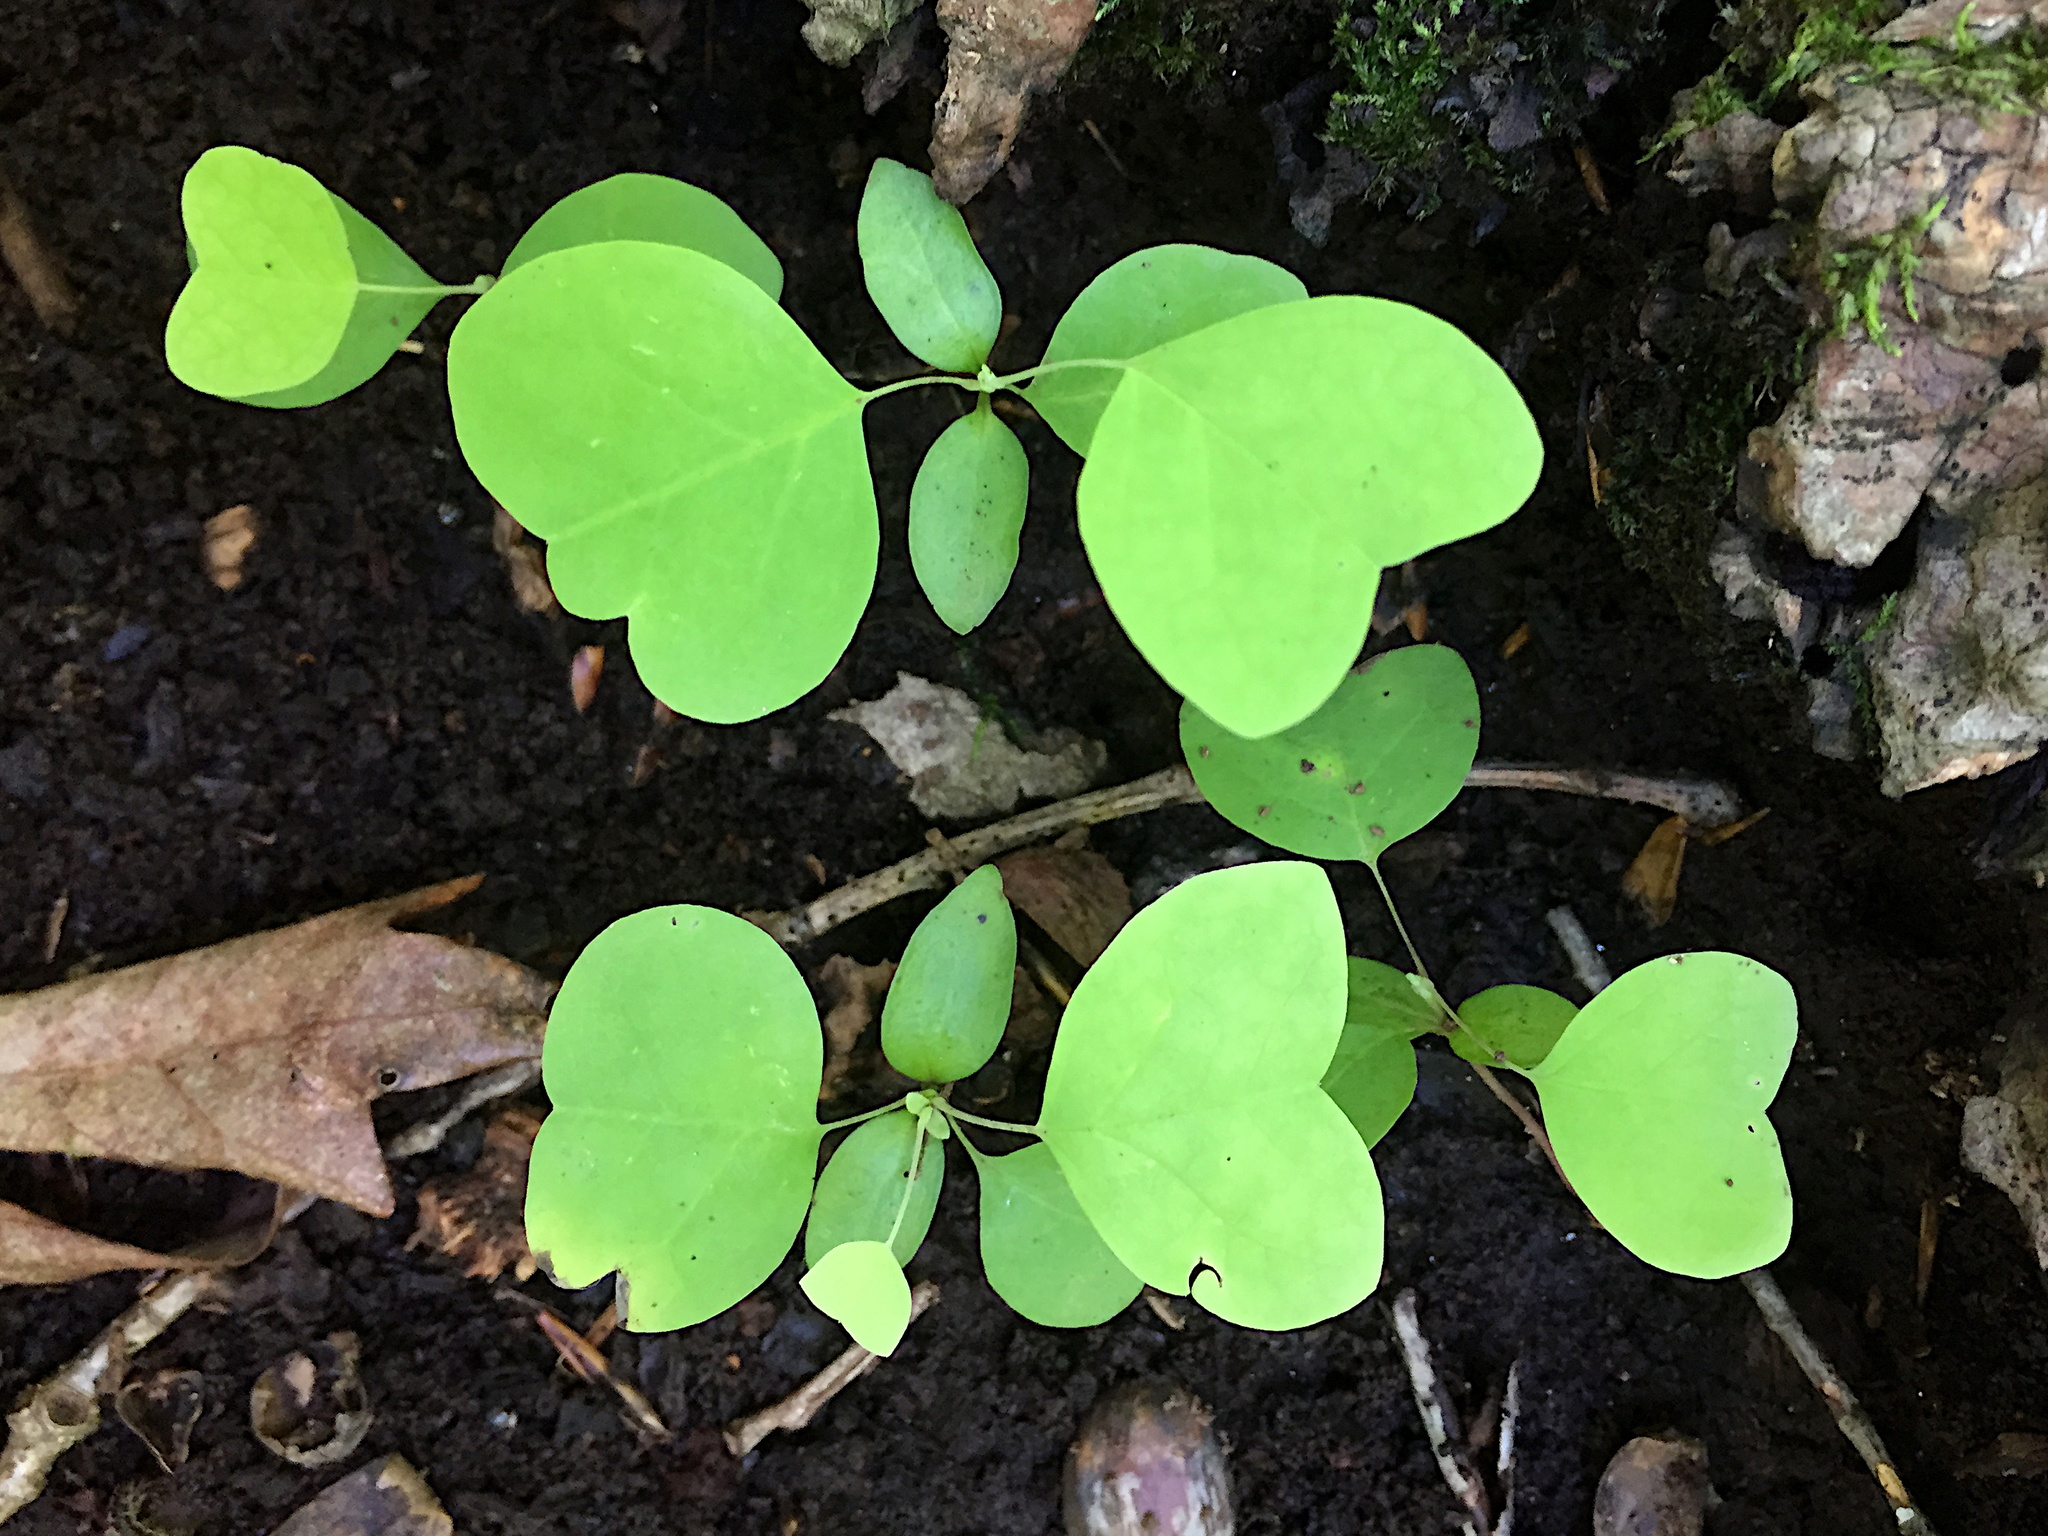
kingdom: Plantae
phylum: Tracheophyta
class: Magnoliopsida
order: Magnoliales
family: Magnoliaceae
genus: Liriodendron
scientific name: Liriodendron tulipifera
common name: Tulip tree
